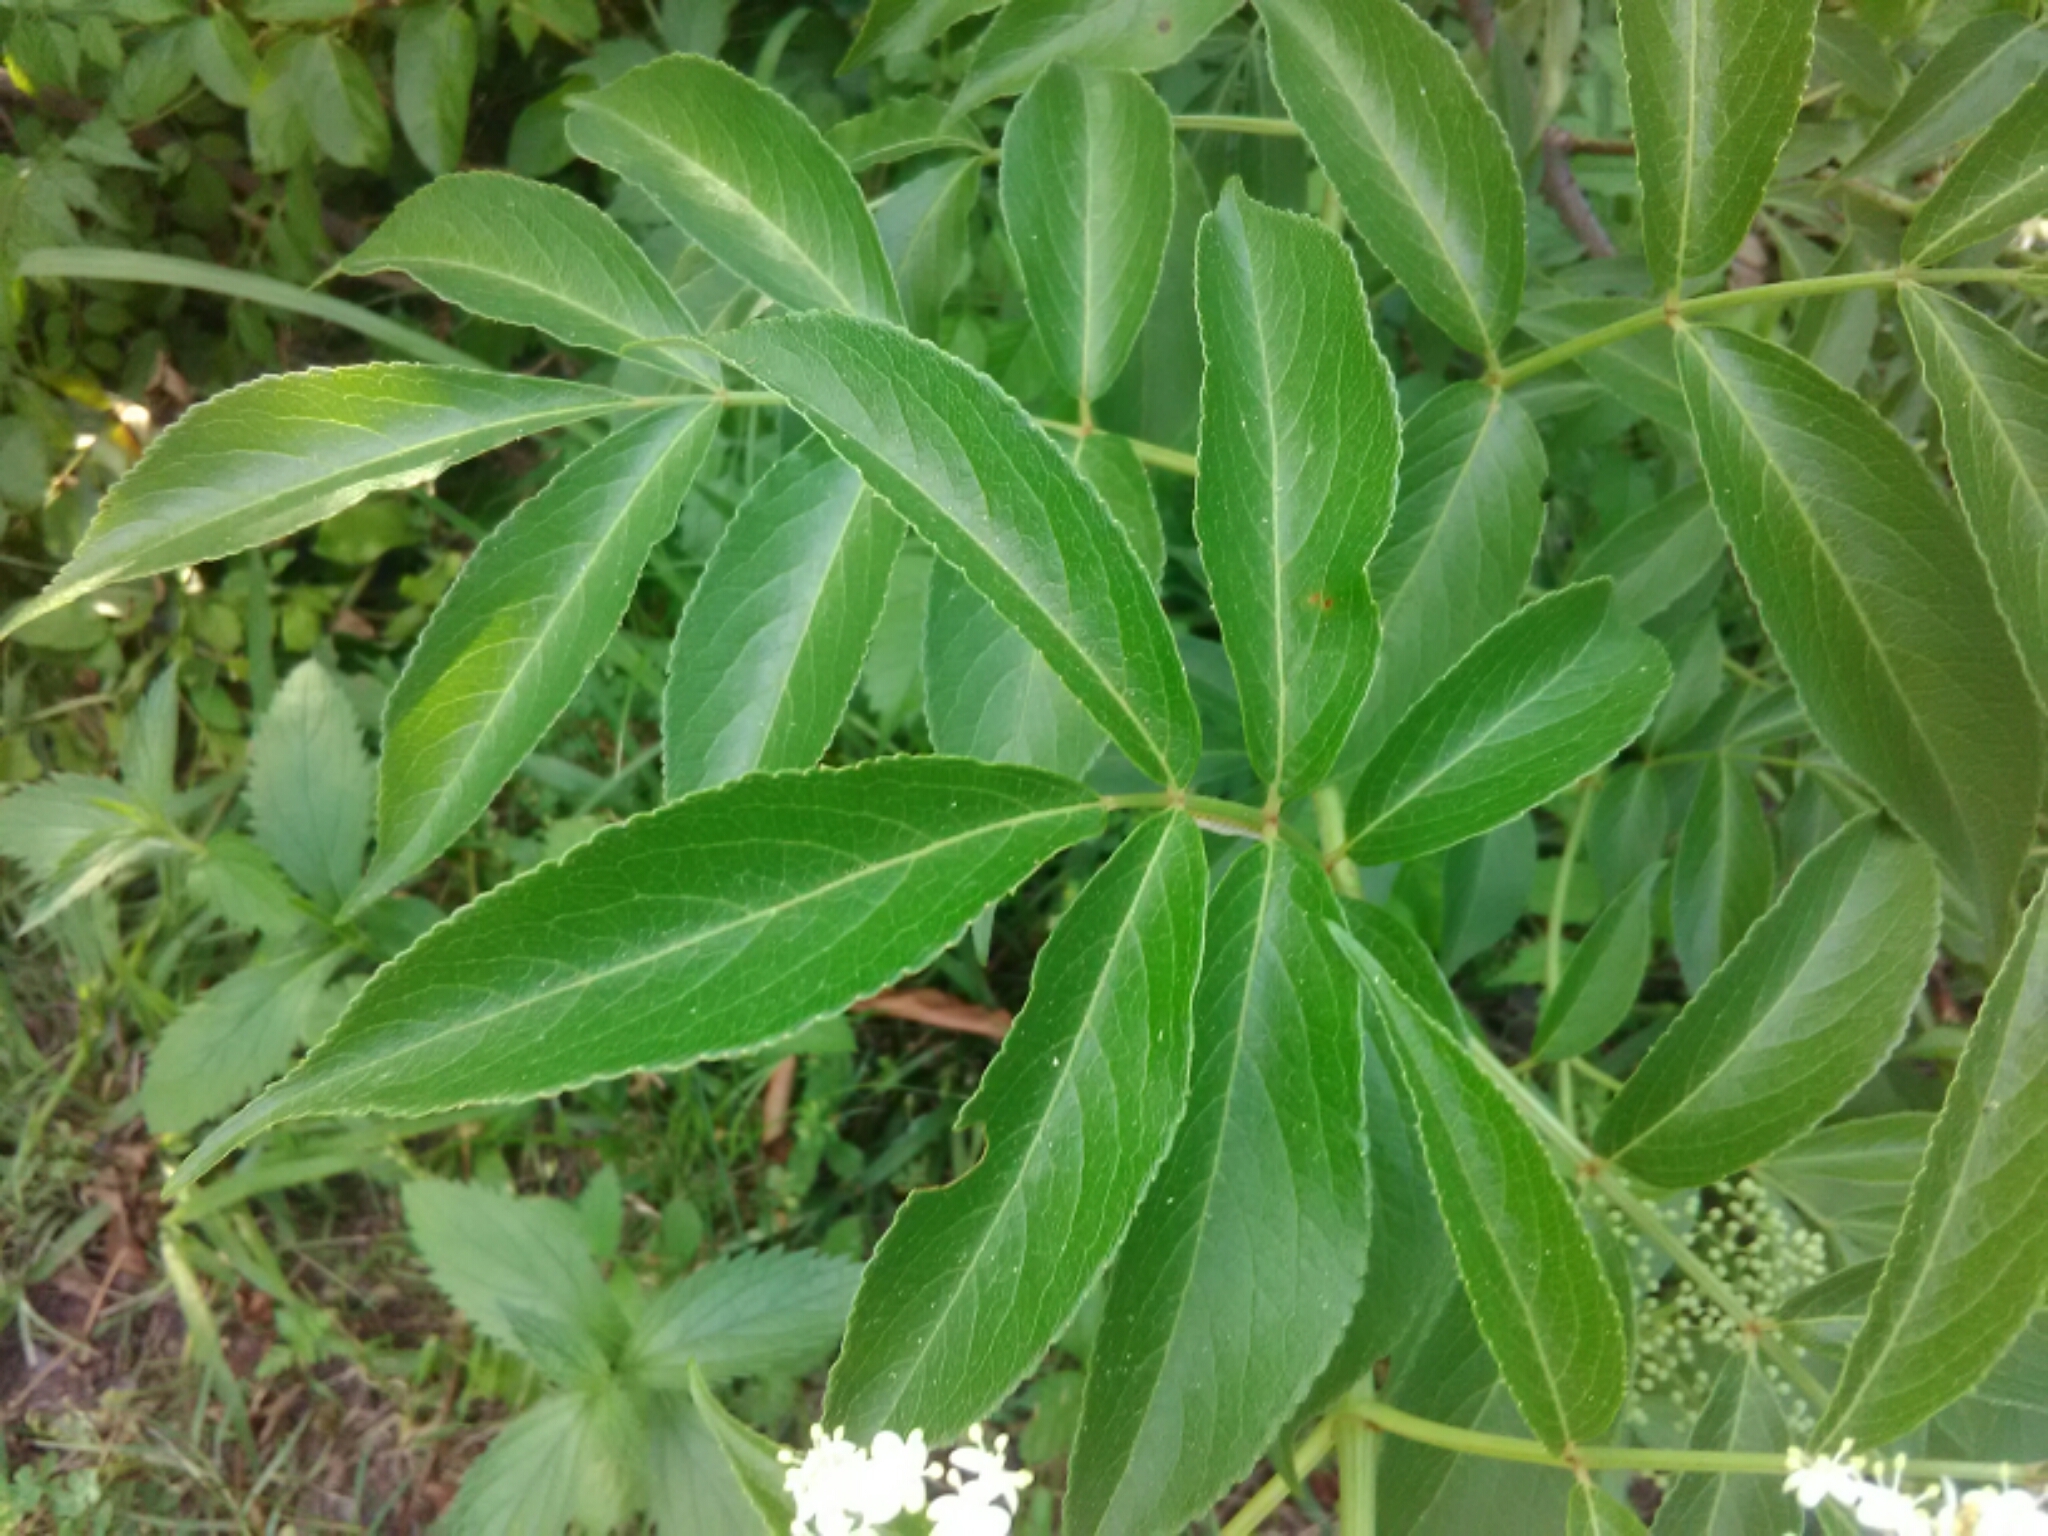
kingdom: Plantae
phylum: Tracheophyta
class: Magnoliopsida
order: Dipsacales
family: Viburnaceae
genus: Sambucus
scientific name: Sambucus canadensis
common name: American elder
